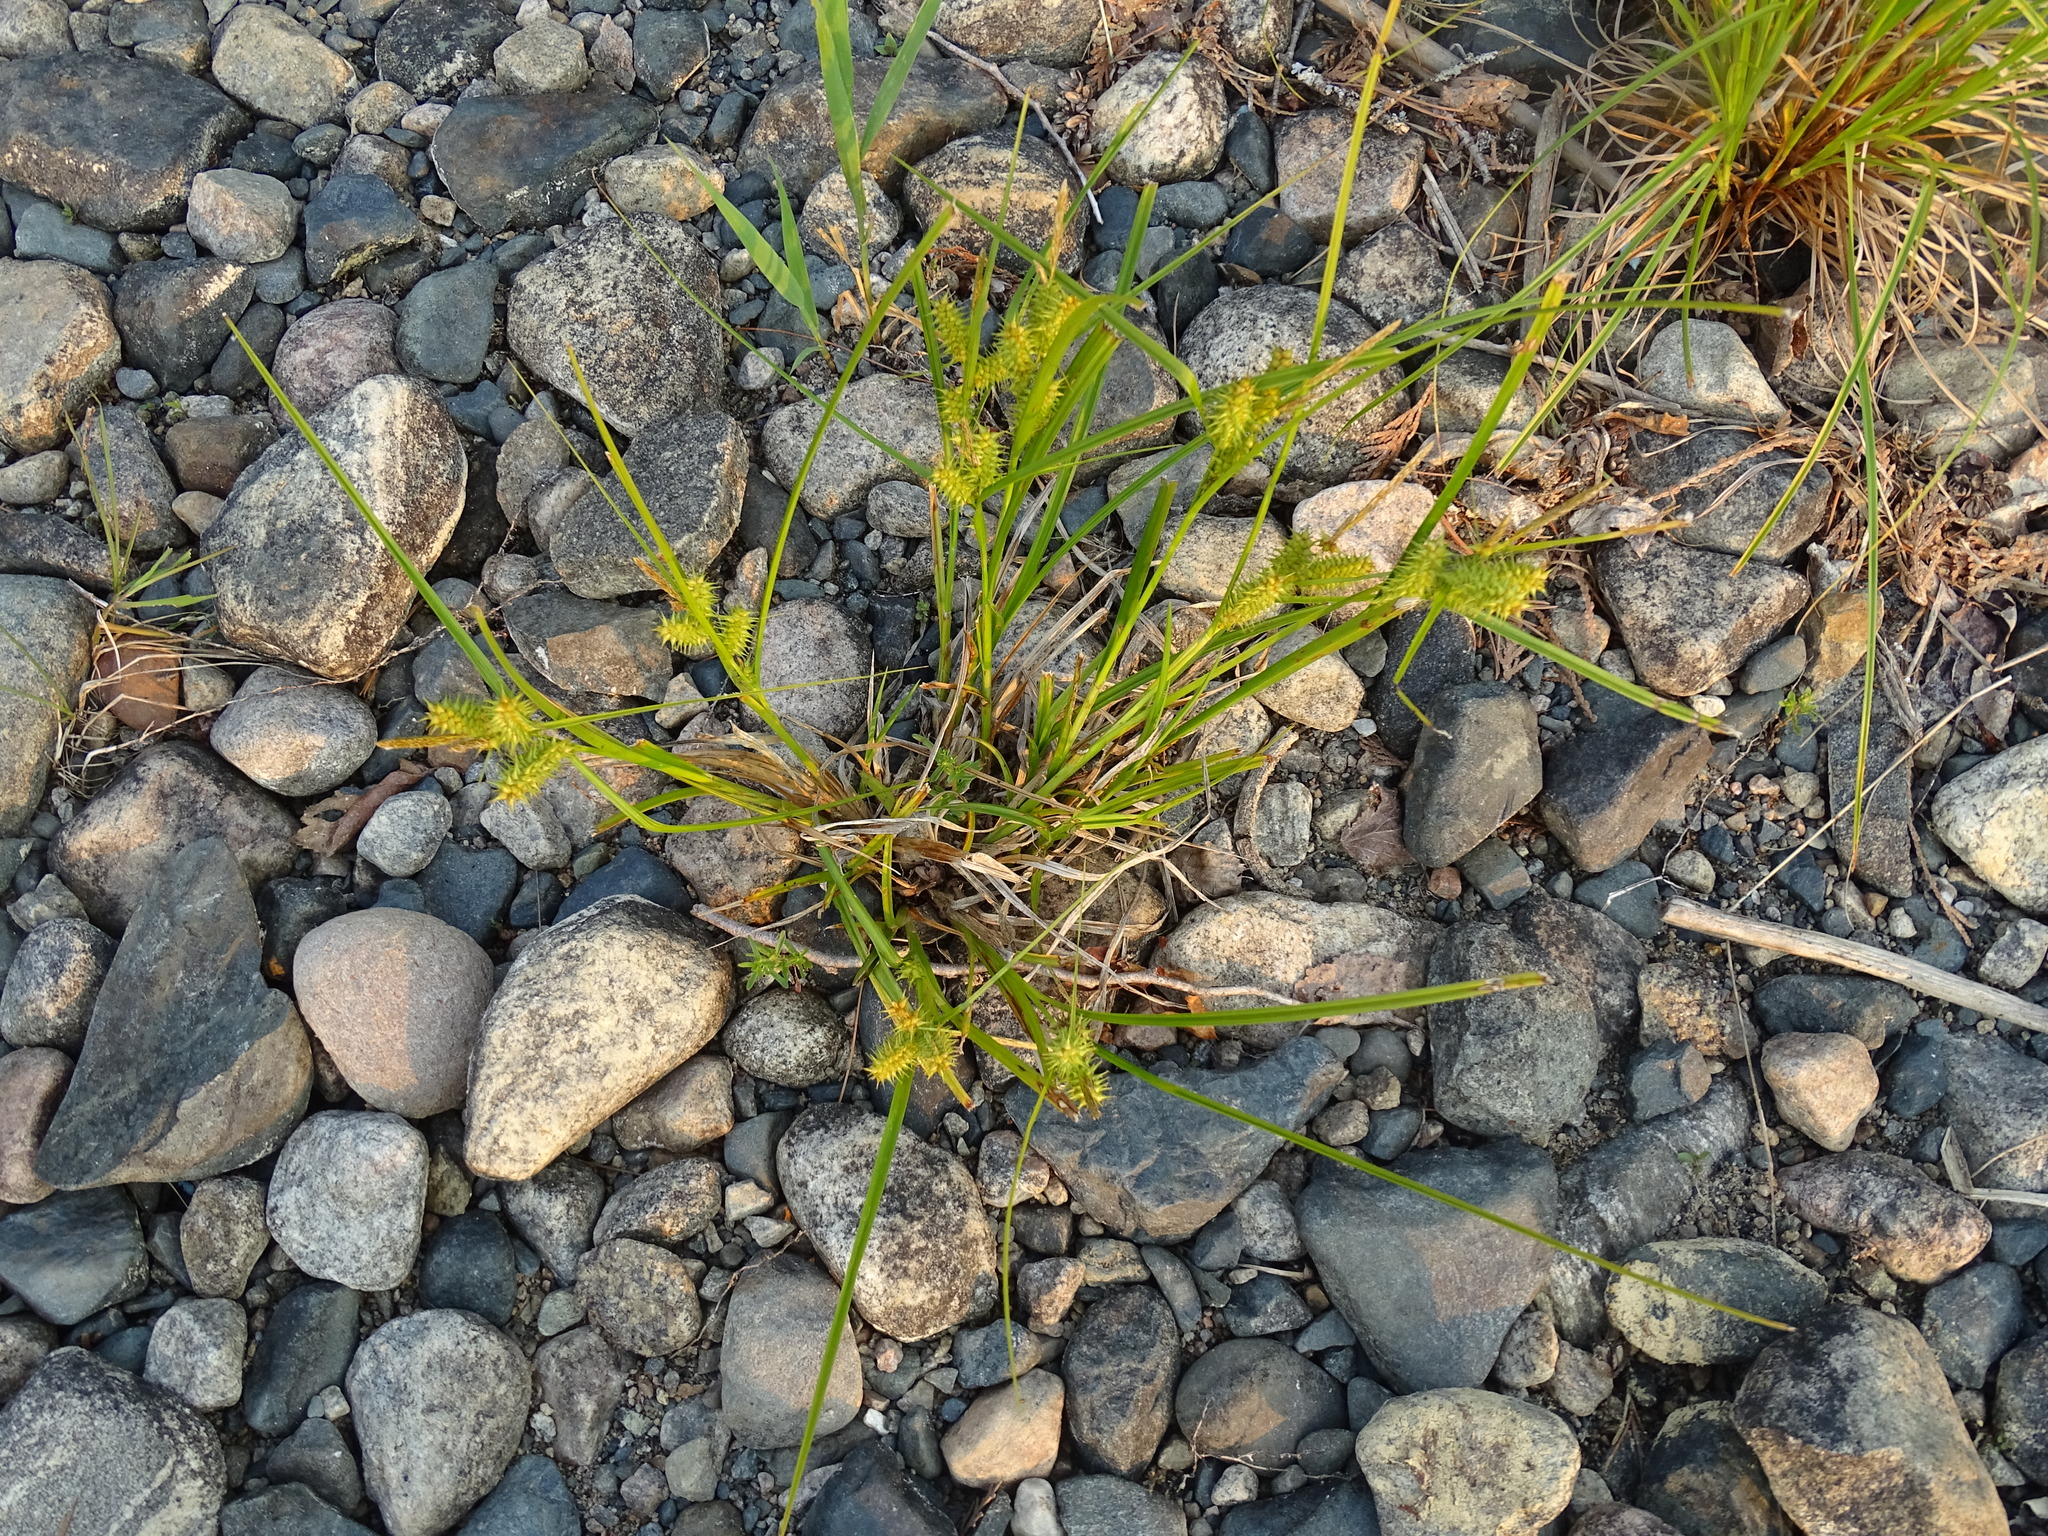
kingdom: Plantae
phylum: Tracheophyta
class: Liliopsida
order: Poales
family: Cyperaceae
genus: Carex
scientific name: Carex retrorsa
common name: Knot-sheath sedge
